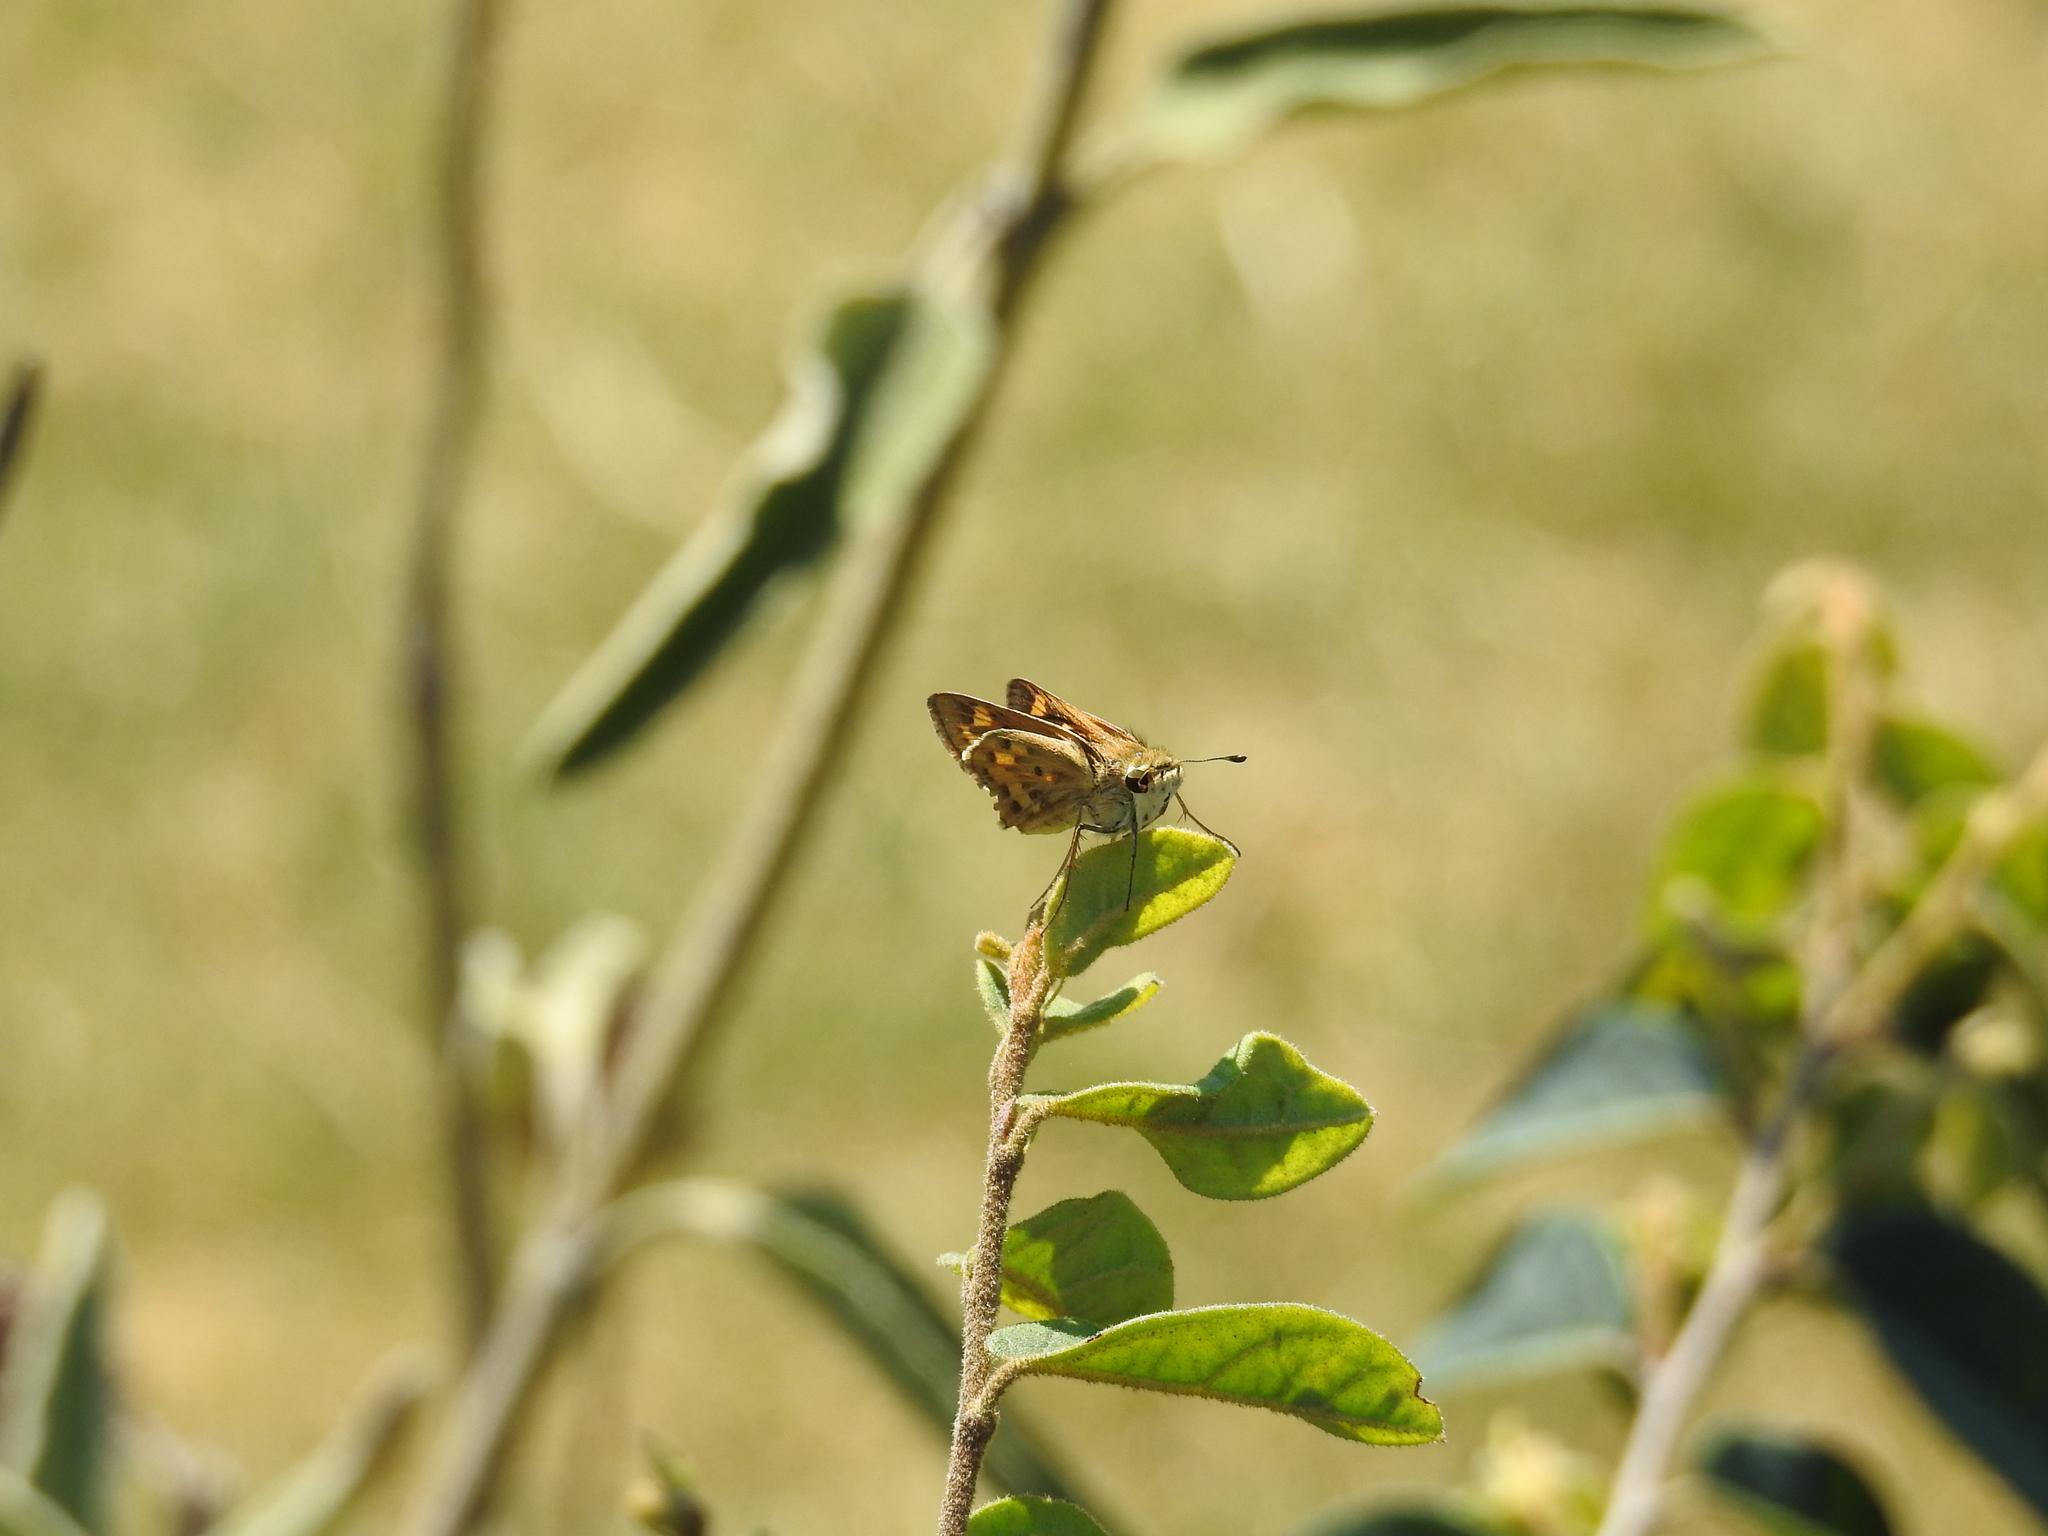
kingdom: Animalia
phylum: Arthropoda
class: Insecta
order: Lepidoptera
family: Hesperiidae
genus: Hylephila
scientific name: Hylephila phyleus
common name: Fiery skipper
